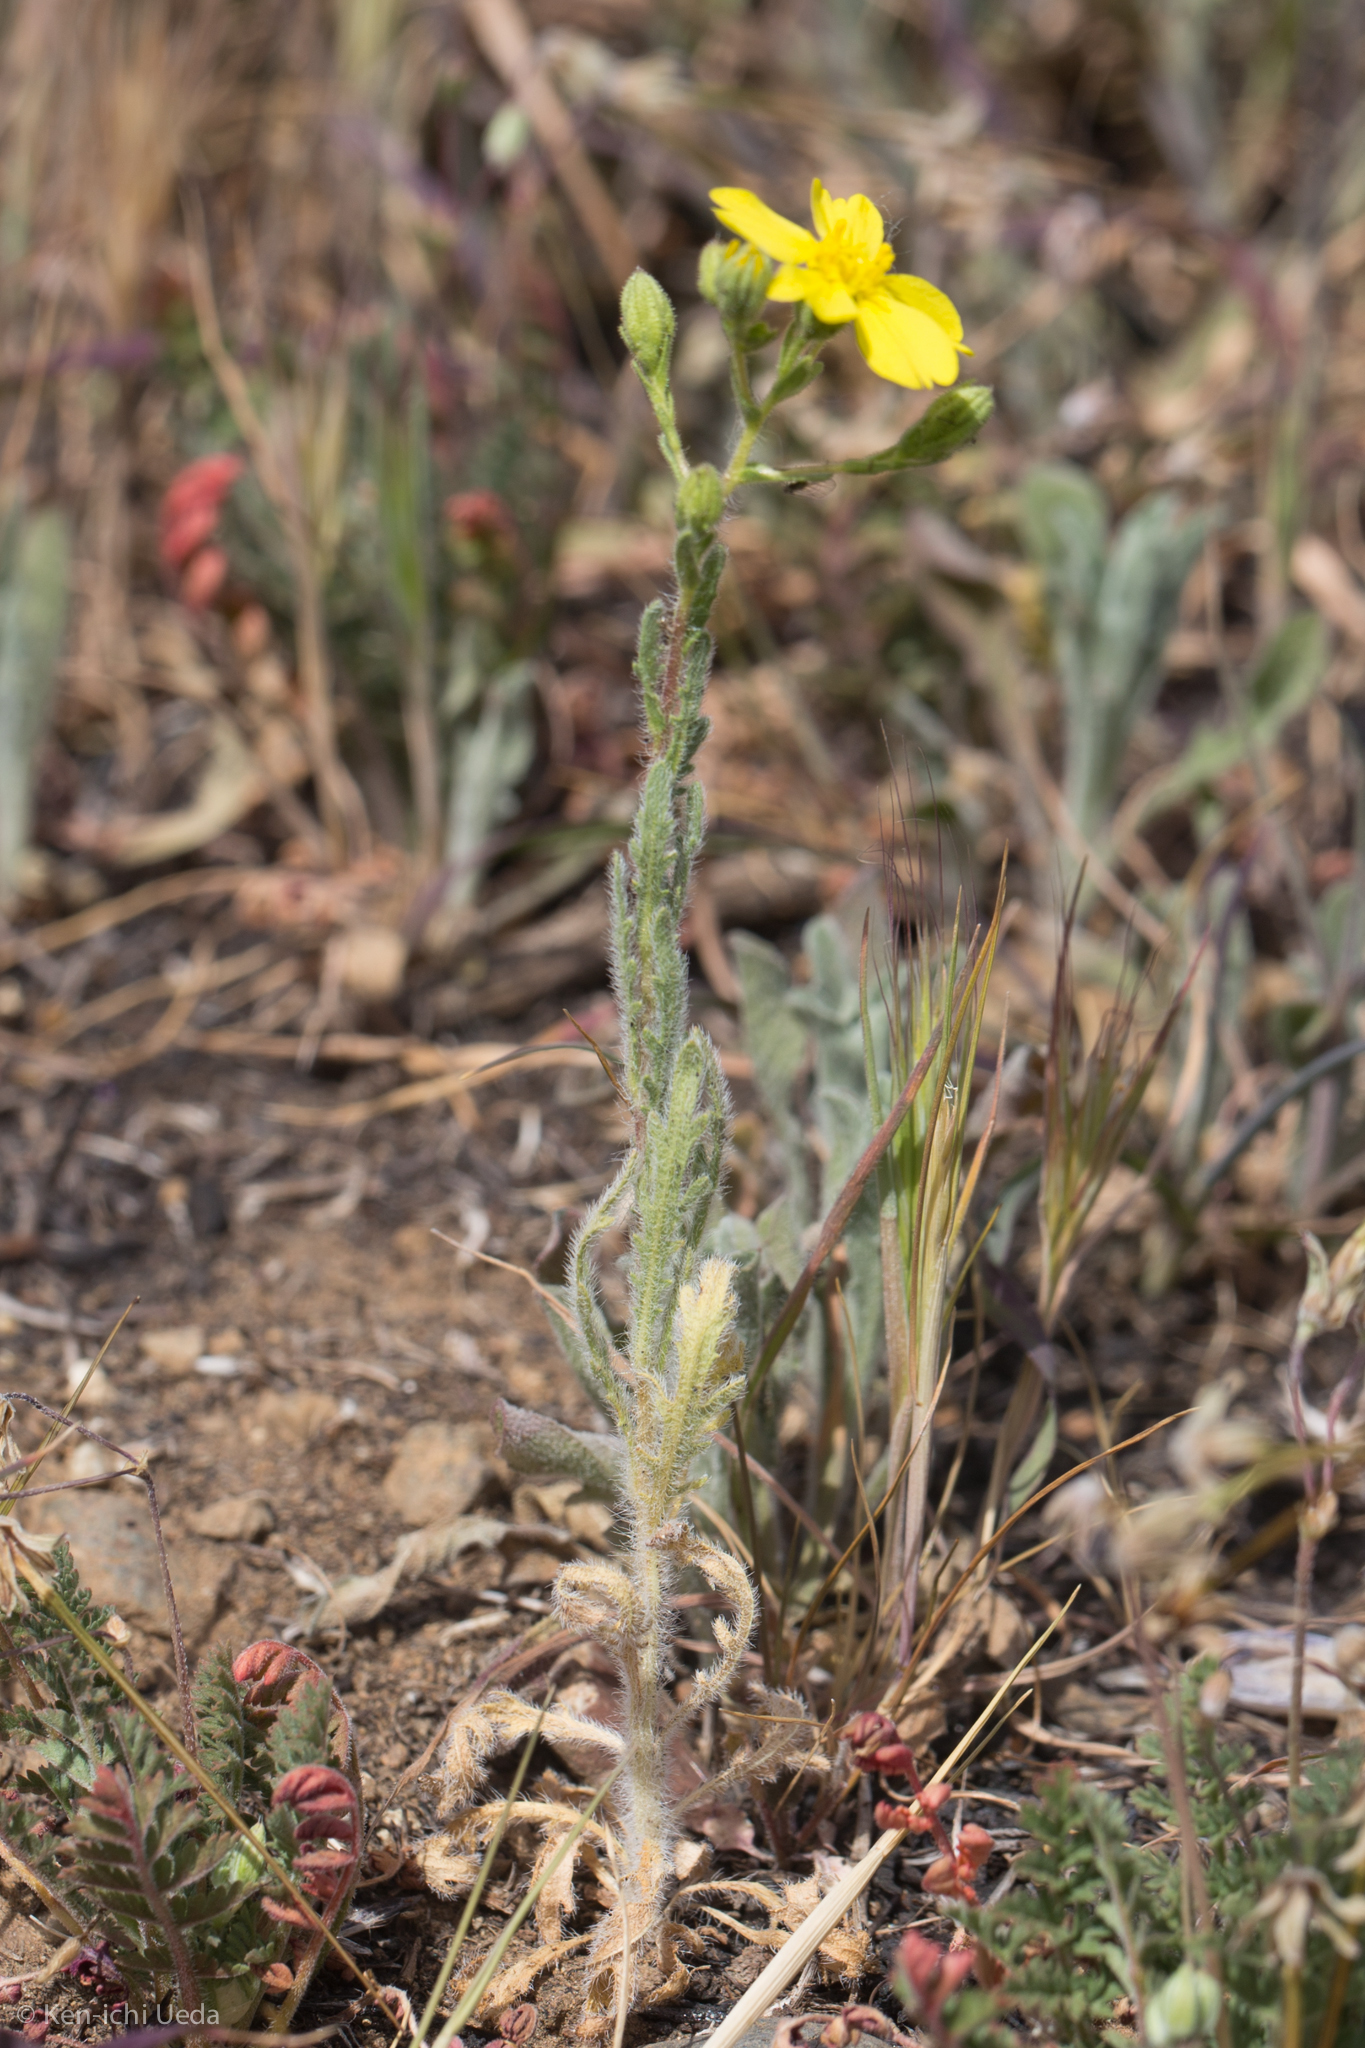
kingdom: Plantae
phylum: Tracheophyta
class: Magnoliopsida
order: Asterales
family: Asteraceae
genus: Deinandra
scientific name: Deinandra kelloggii
